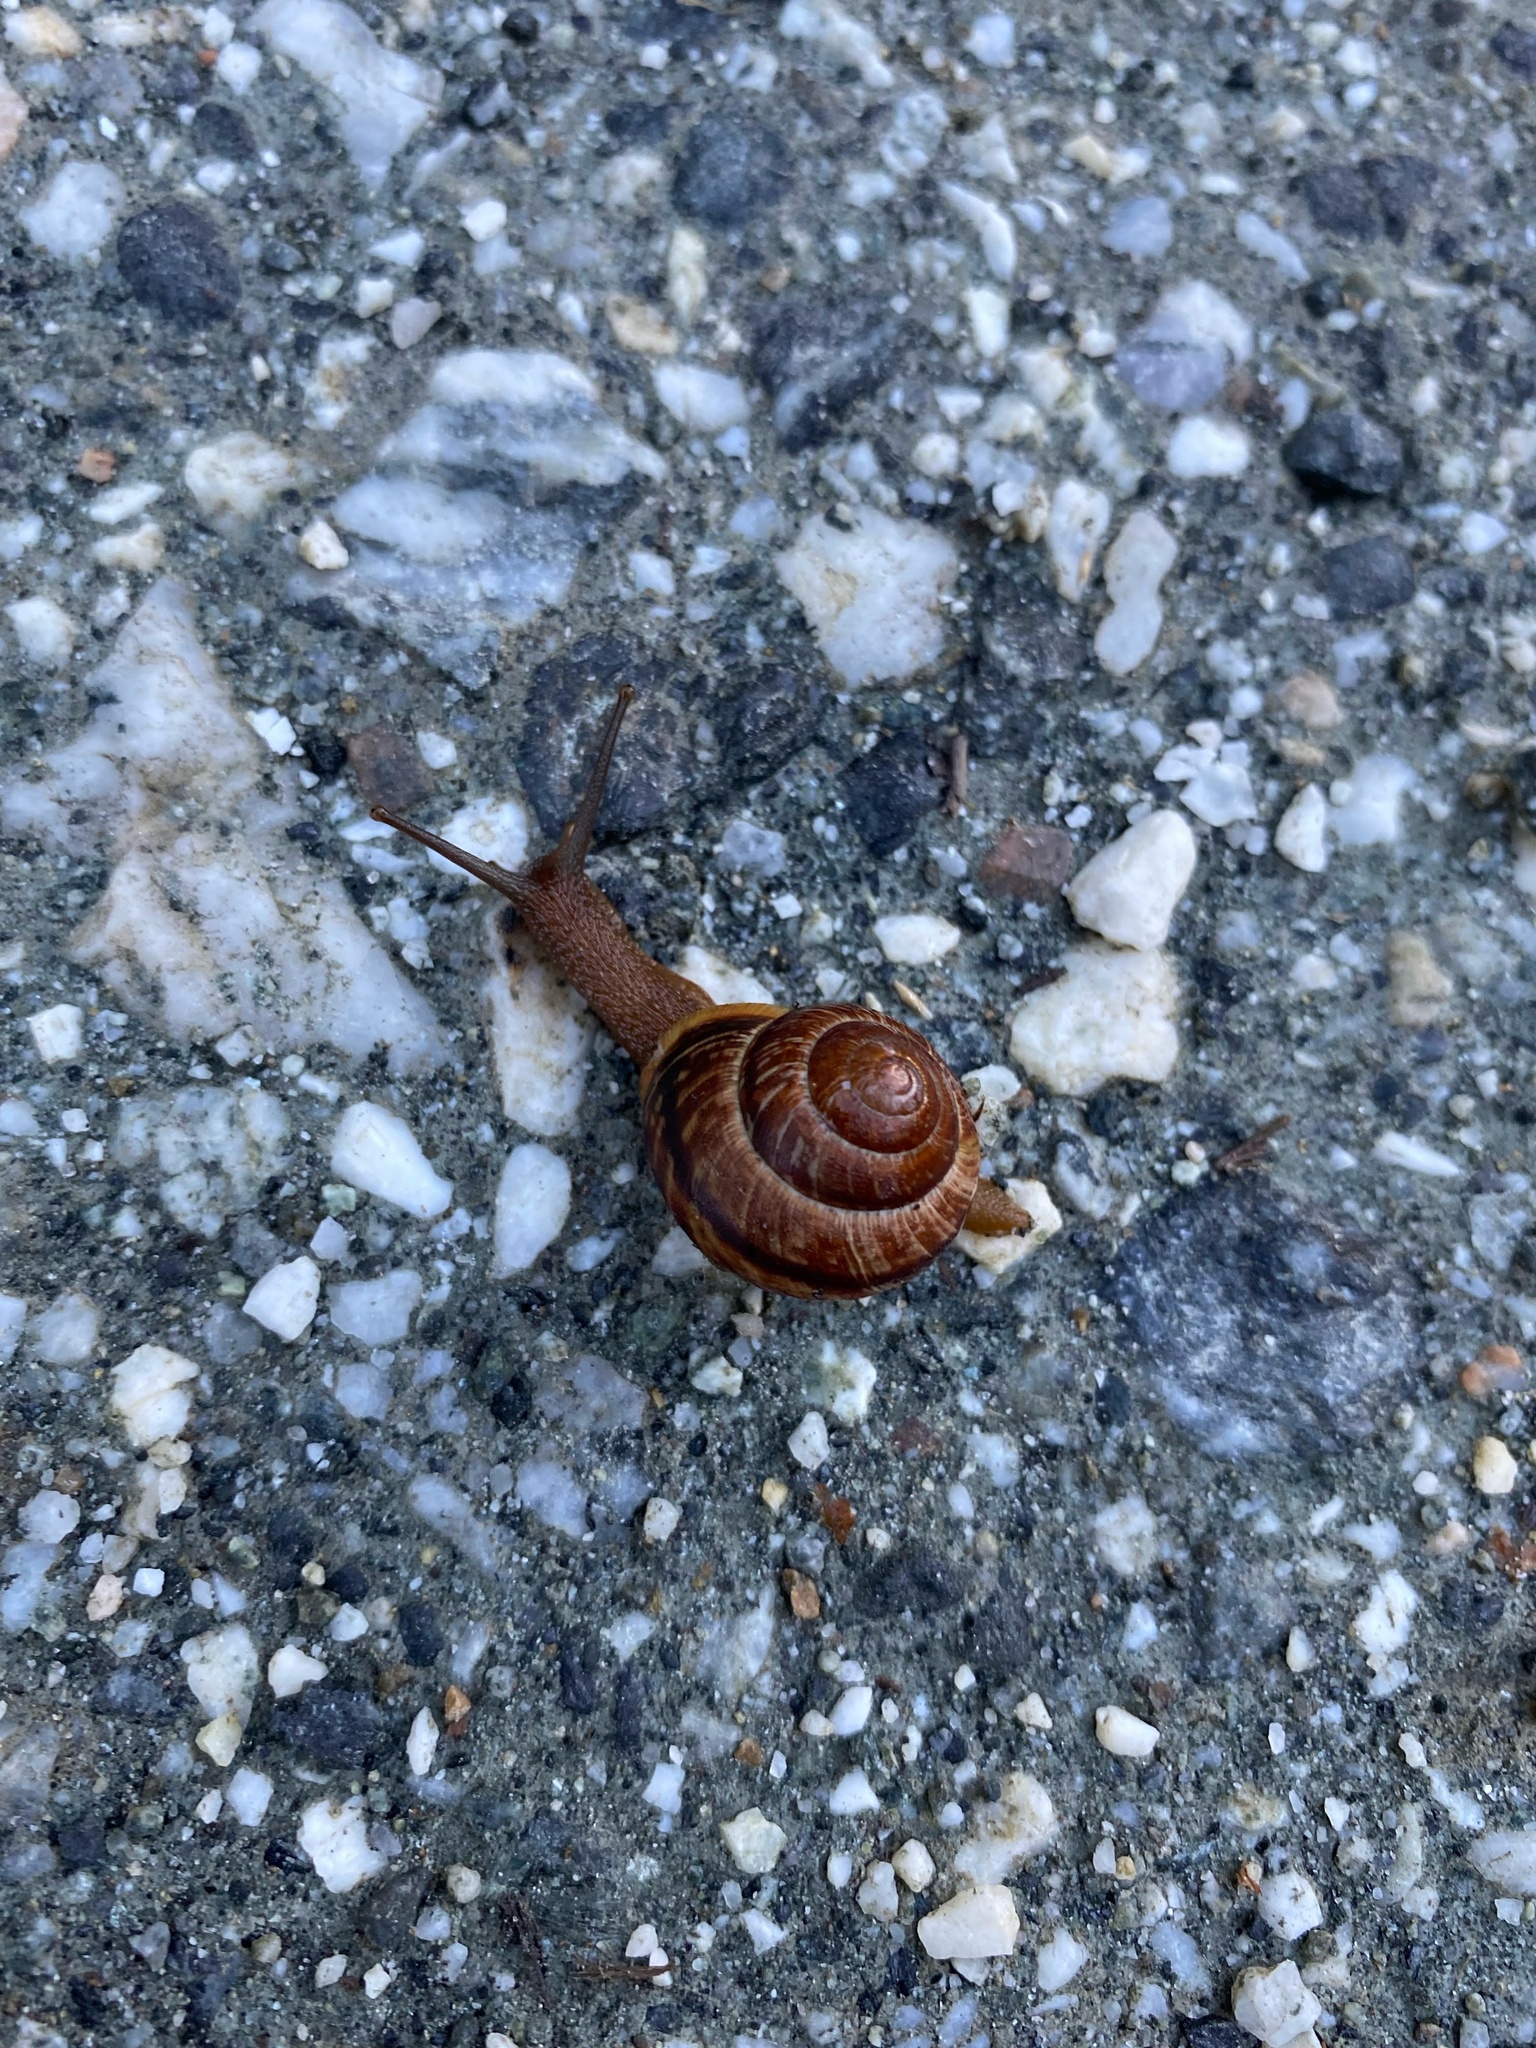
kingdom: Animalia
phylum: Mollusca
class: Gastropoda
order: Stylommatophora
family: Helicidae
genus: Arianta
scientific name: Arianta arbustorum
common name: Copse snail
